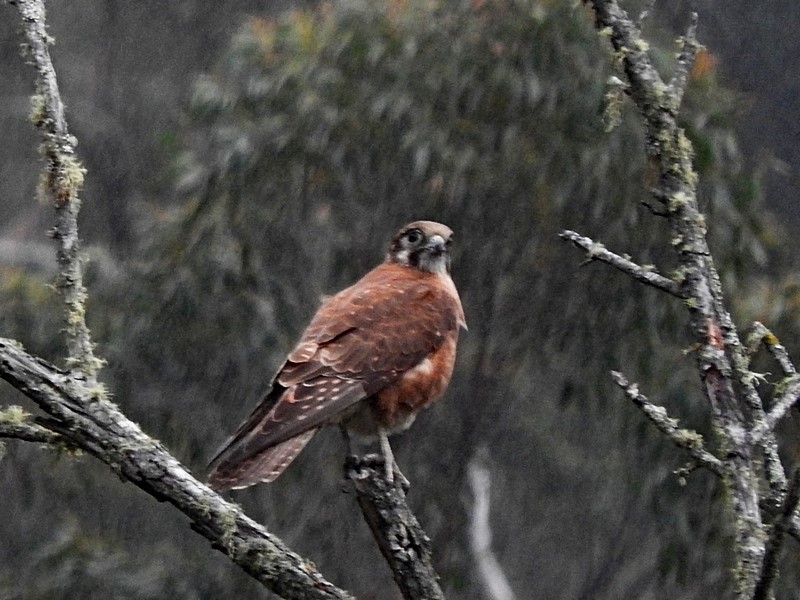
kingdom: Animalia
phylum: Chordata
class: Aves
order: Falconiformes
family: Falconidae
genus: Falco
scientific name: Falco berigora
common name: Brown falcon
